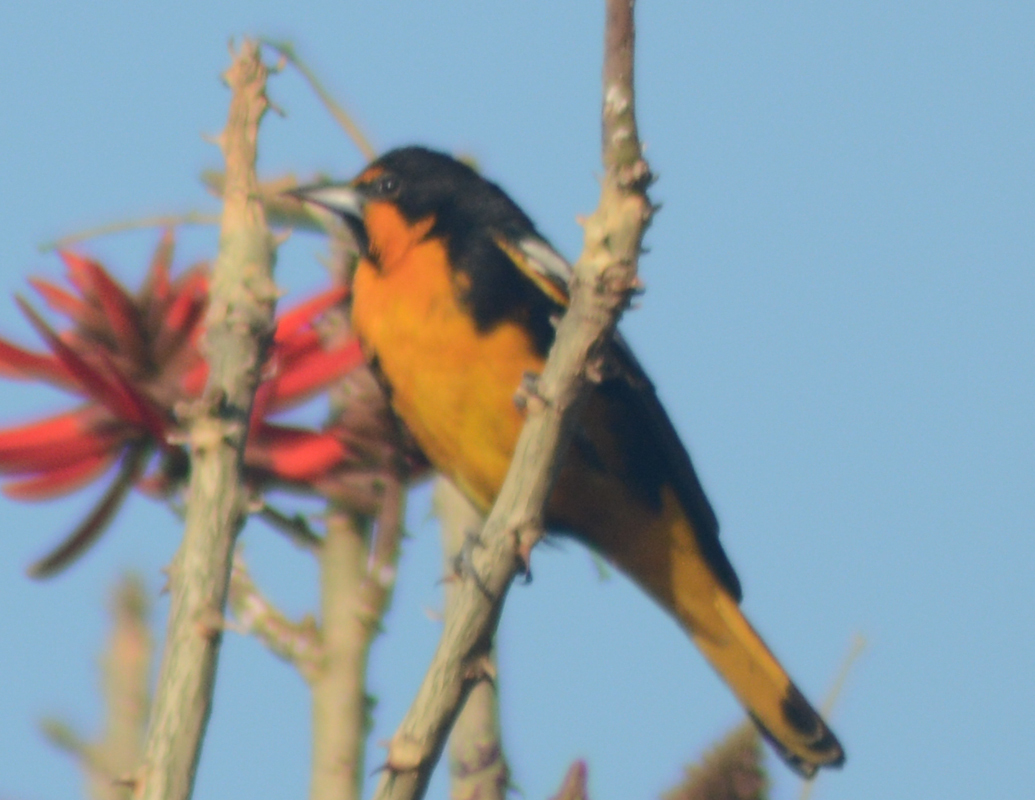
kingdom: Animalia
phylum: Chordata
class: Aves
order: Passeriformes
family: Icteridae
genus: Icterus
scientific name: Icterus abeillei
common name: Black-backed oriole
